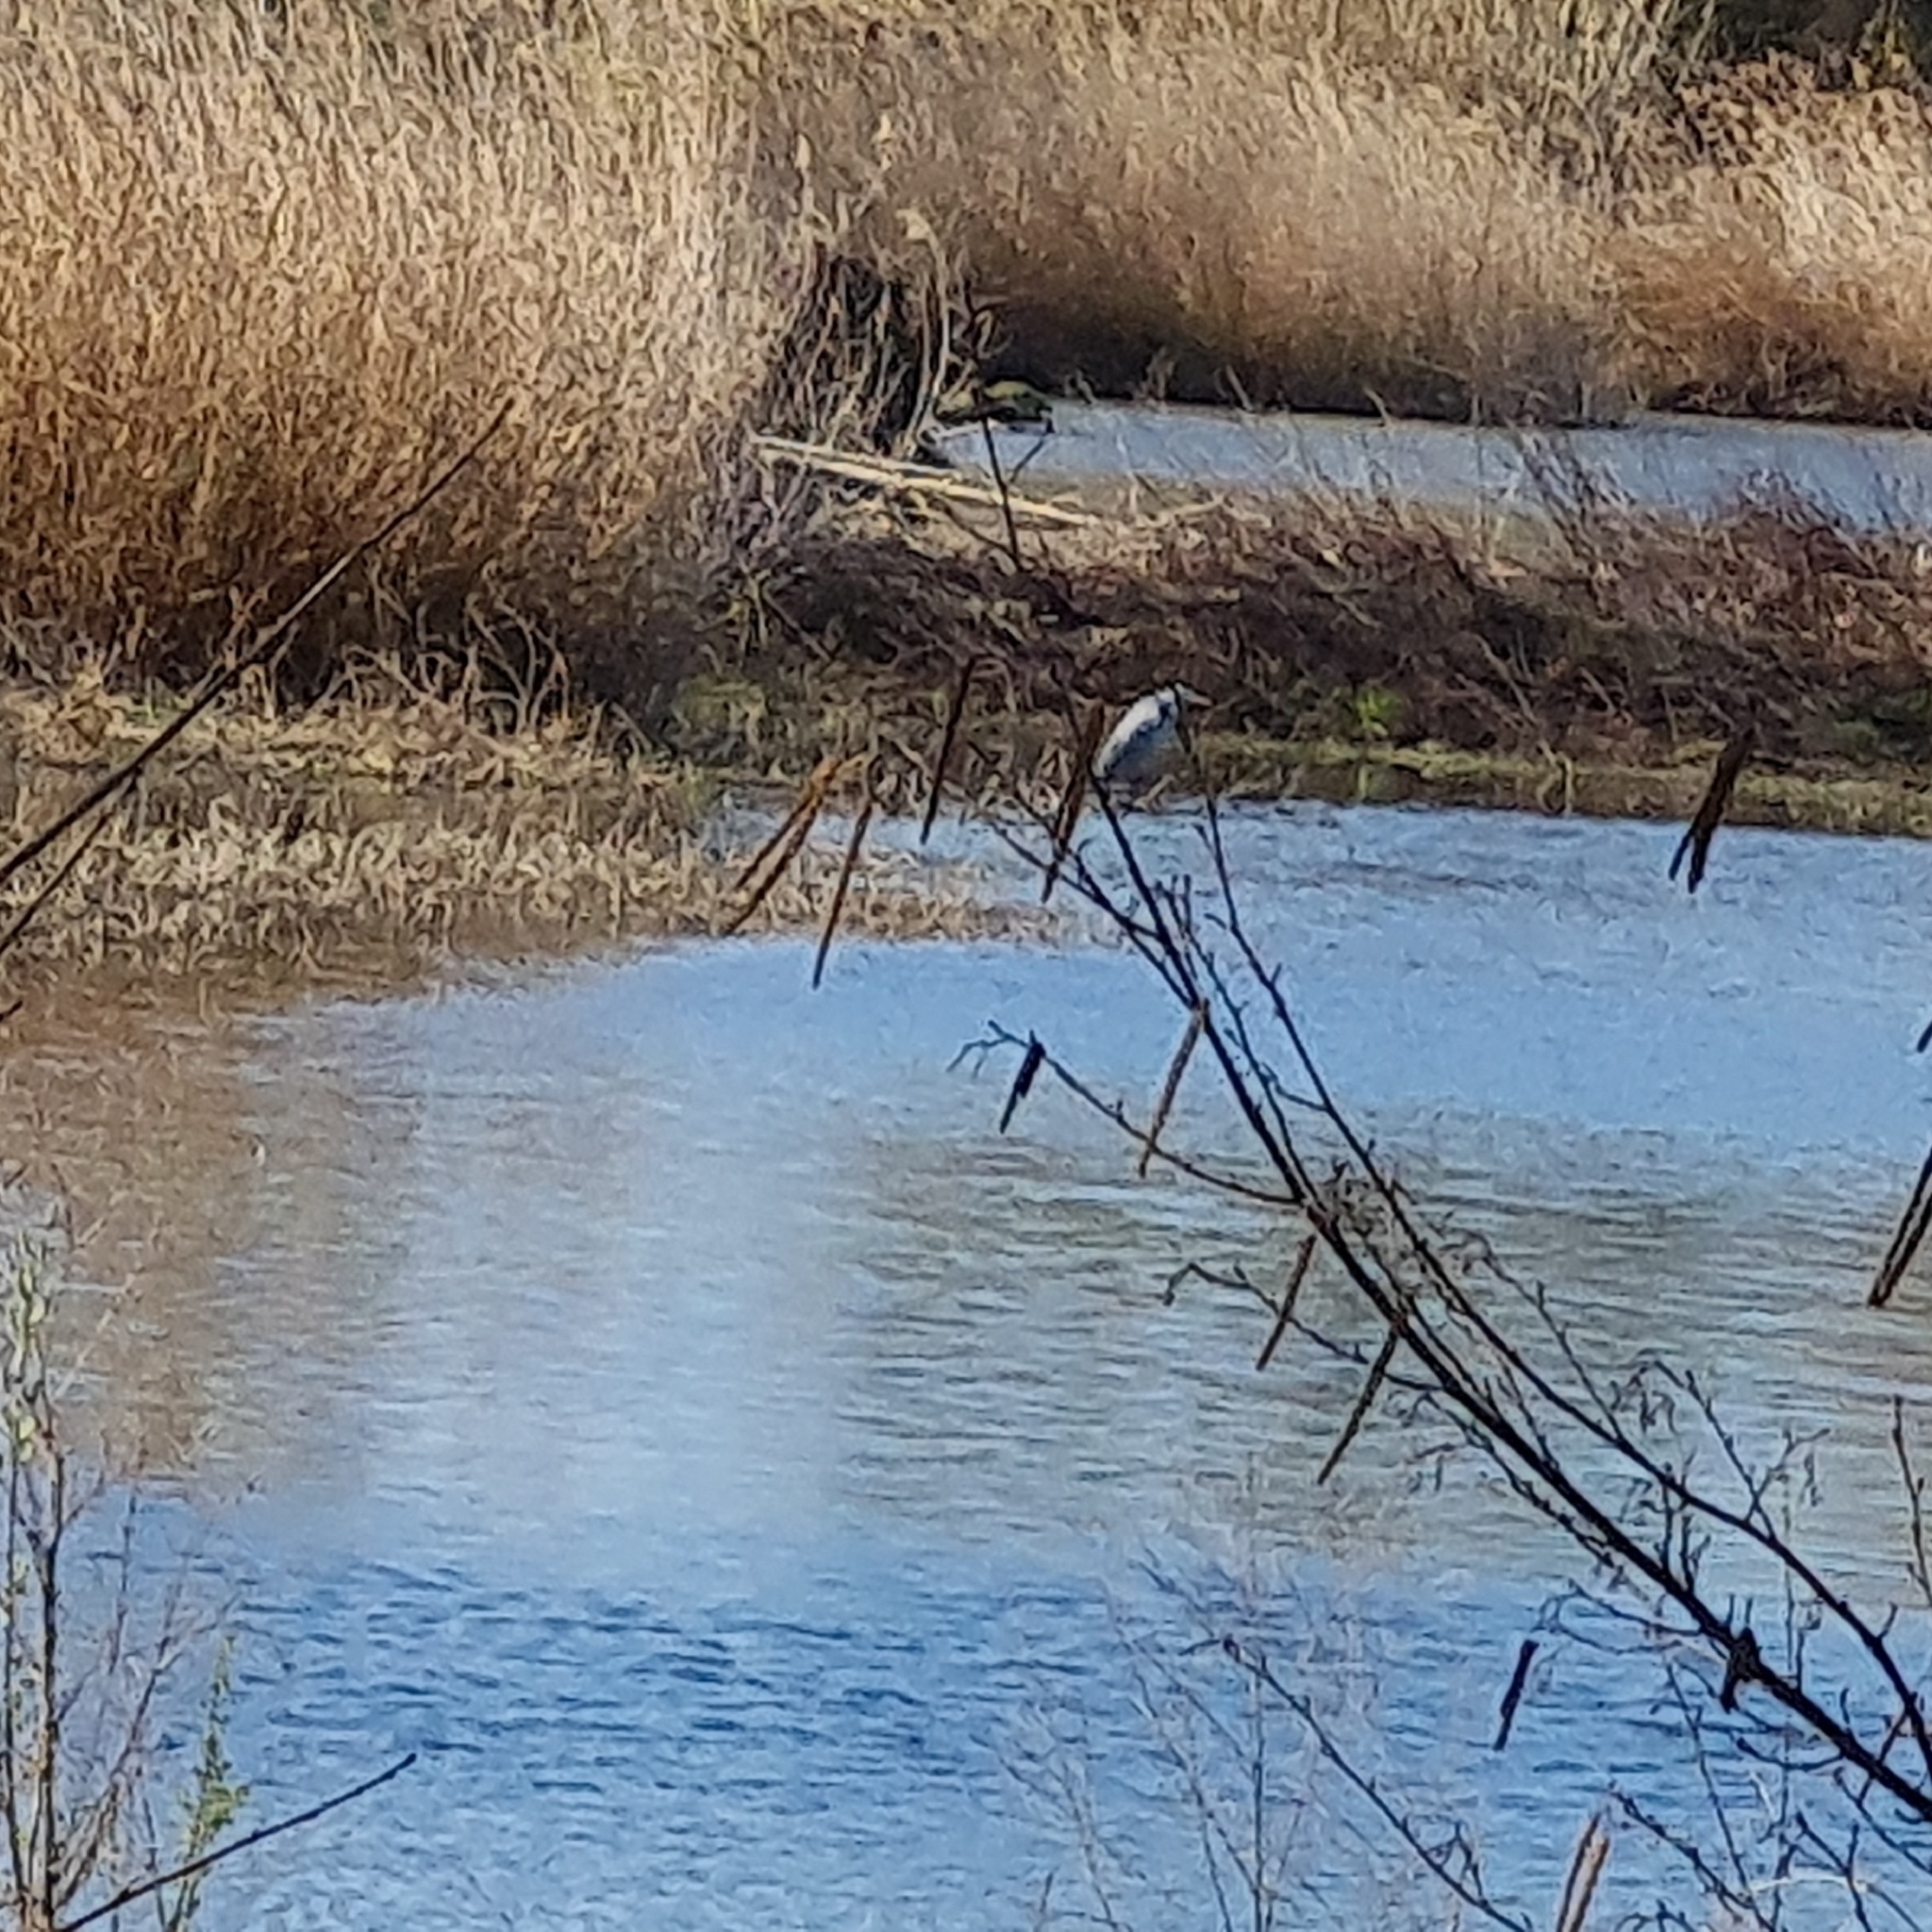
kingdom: Animalia
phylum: Chordata
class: Aves
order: Pelecaniformes
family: Ardeidae
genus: Ardea
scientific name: Ardea cinerea
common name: Grey heron
